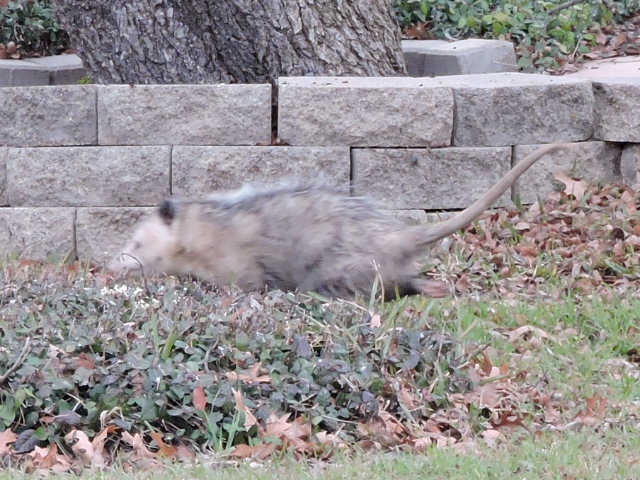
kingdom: Animalia
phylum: Chordata
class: Mammalia
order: Didelphimorphia
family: Didelphidae
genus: Didelphis
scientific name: Didelphis virginiana
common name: Virginia opossum
